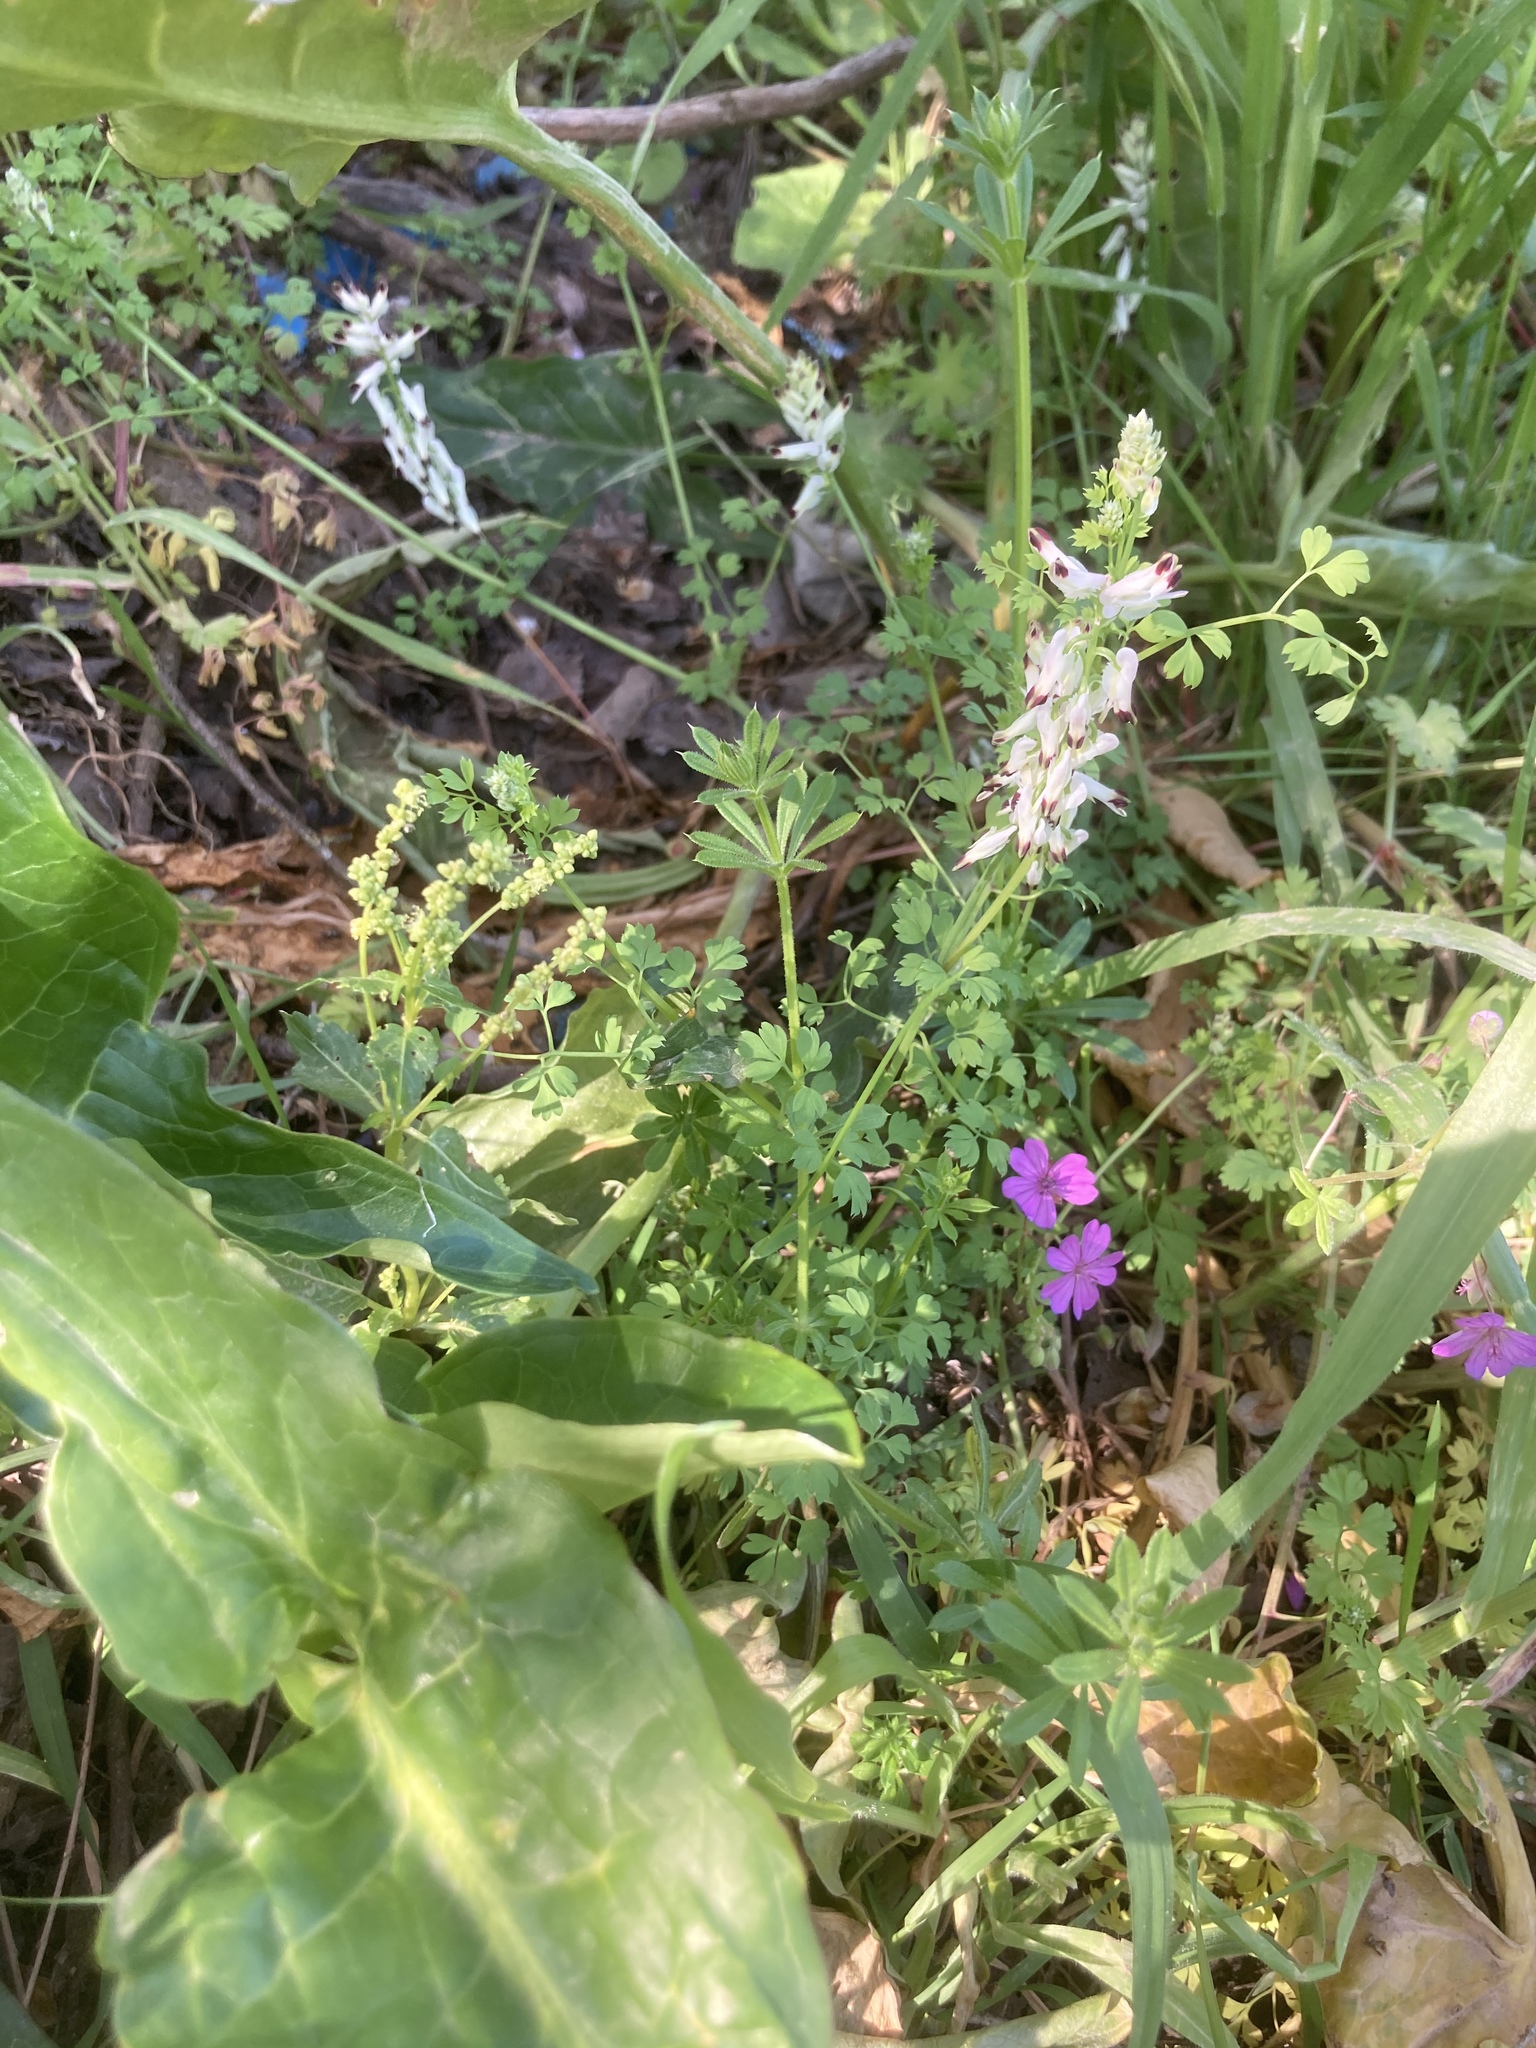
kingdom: Plantae
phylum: Tracheophyta
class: Magnoliopsida
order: Ranunculales
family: Papaveraceae
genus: Fumaria
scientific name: Fumaria capreolata
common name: White ramping-fumitory
